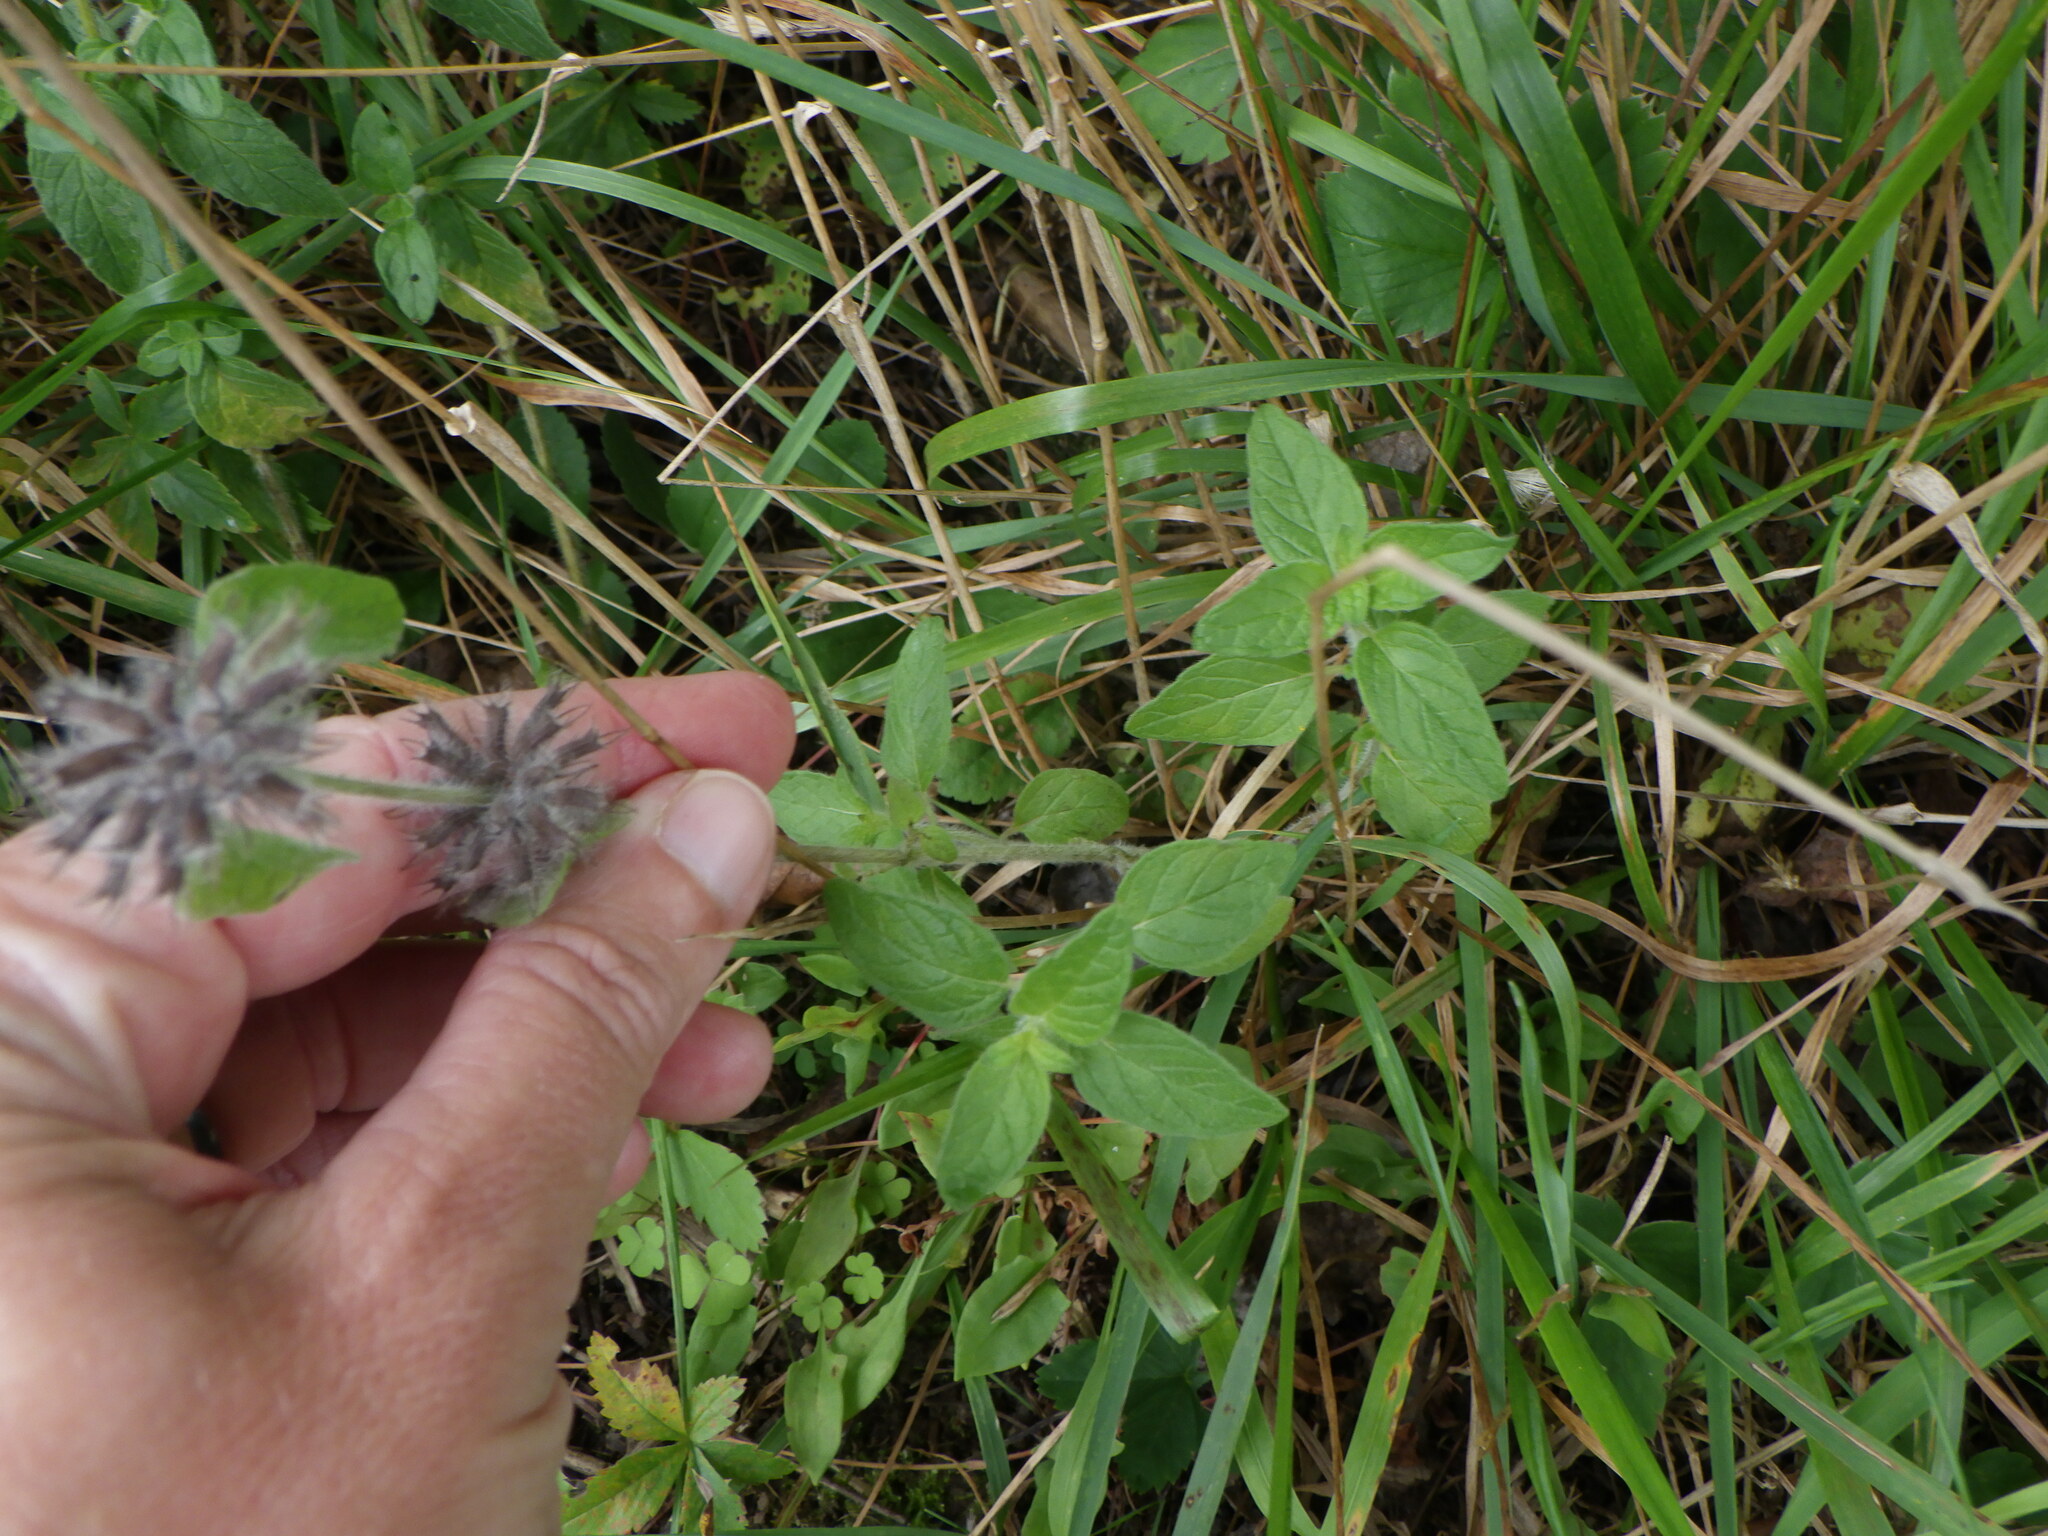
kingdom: Plantae
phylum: Tracheophyta
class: Magnoliopsida
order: Lamiales
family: Lamiaceae
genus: Clinopodium
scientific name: Clinopodium vulgare
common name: Wild basil
